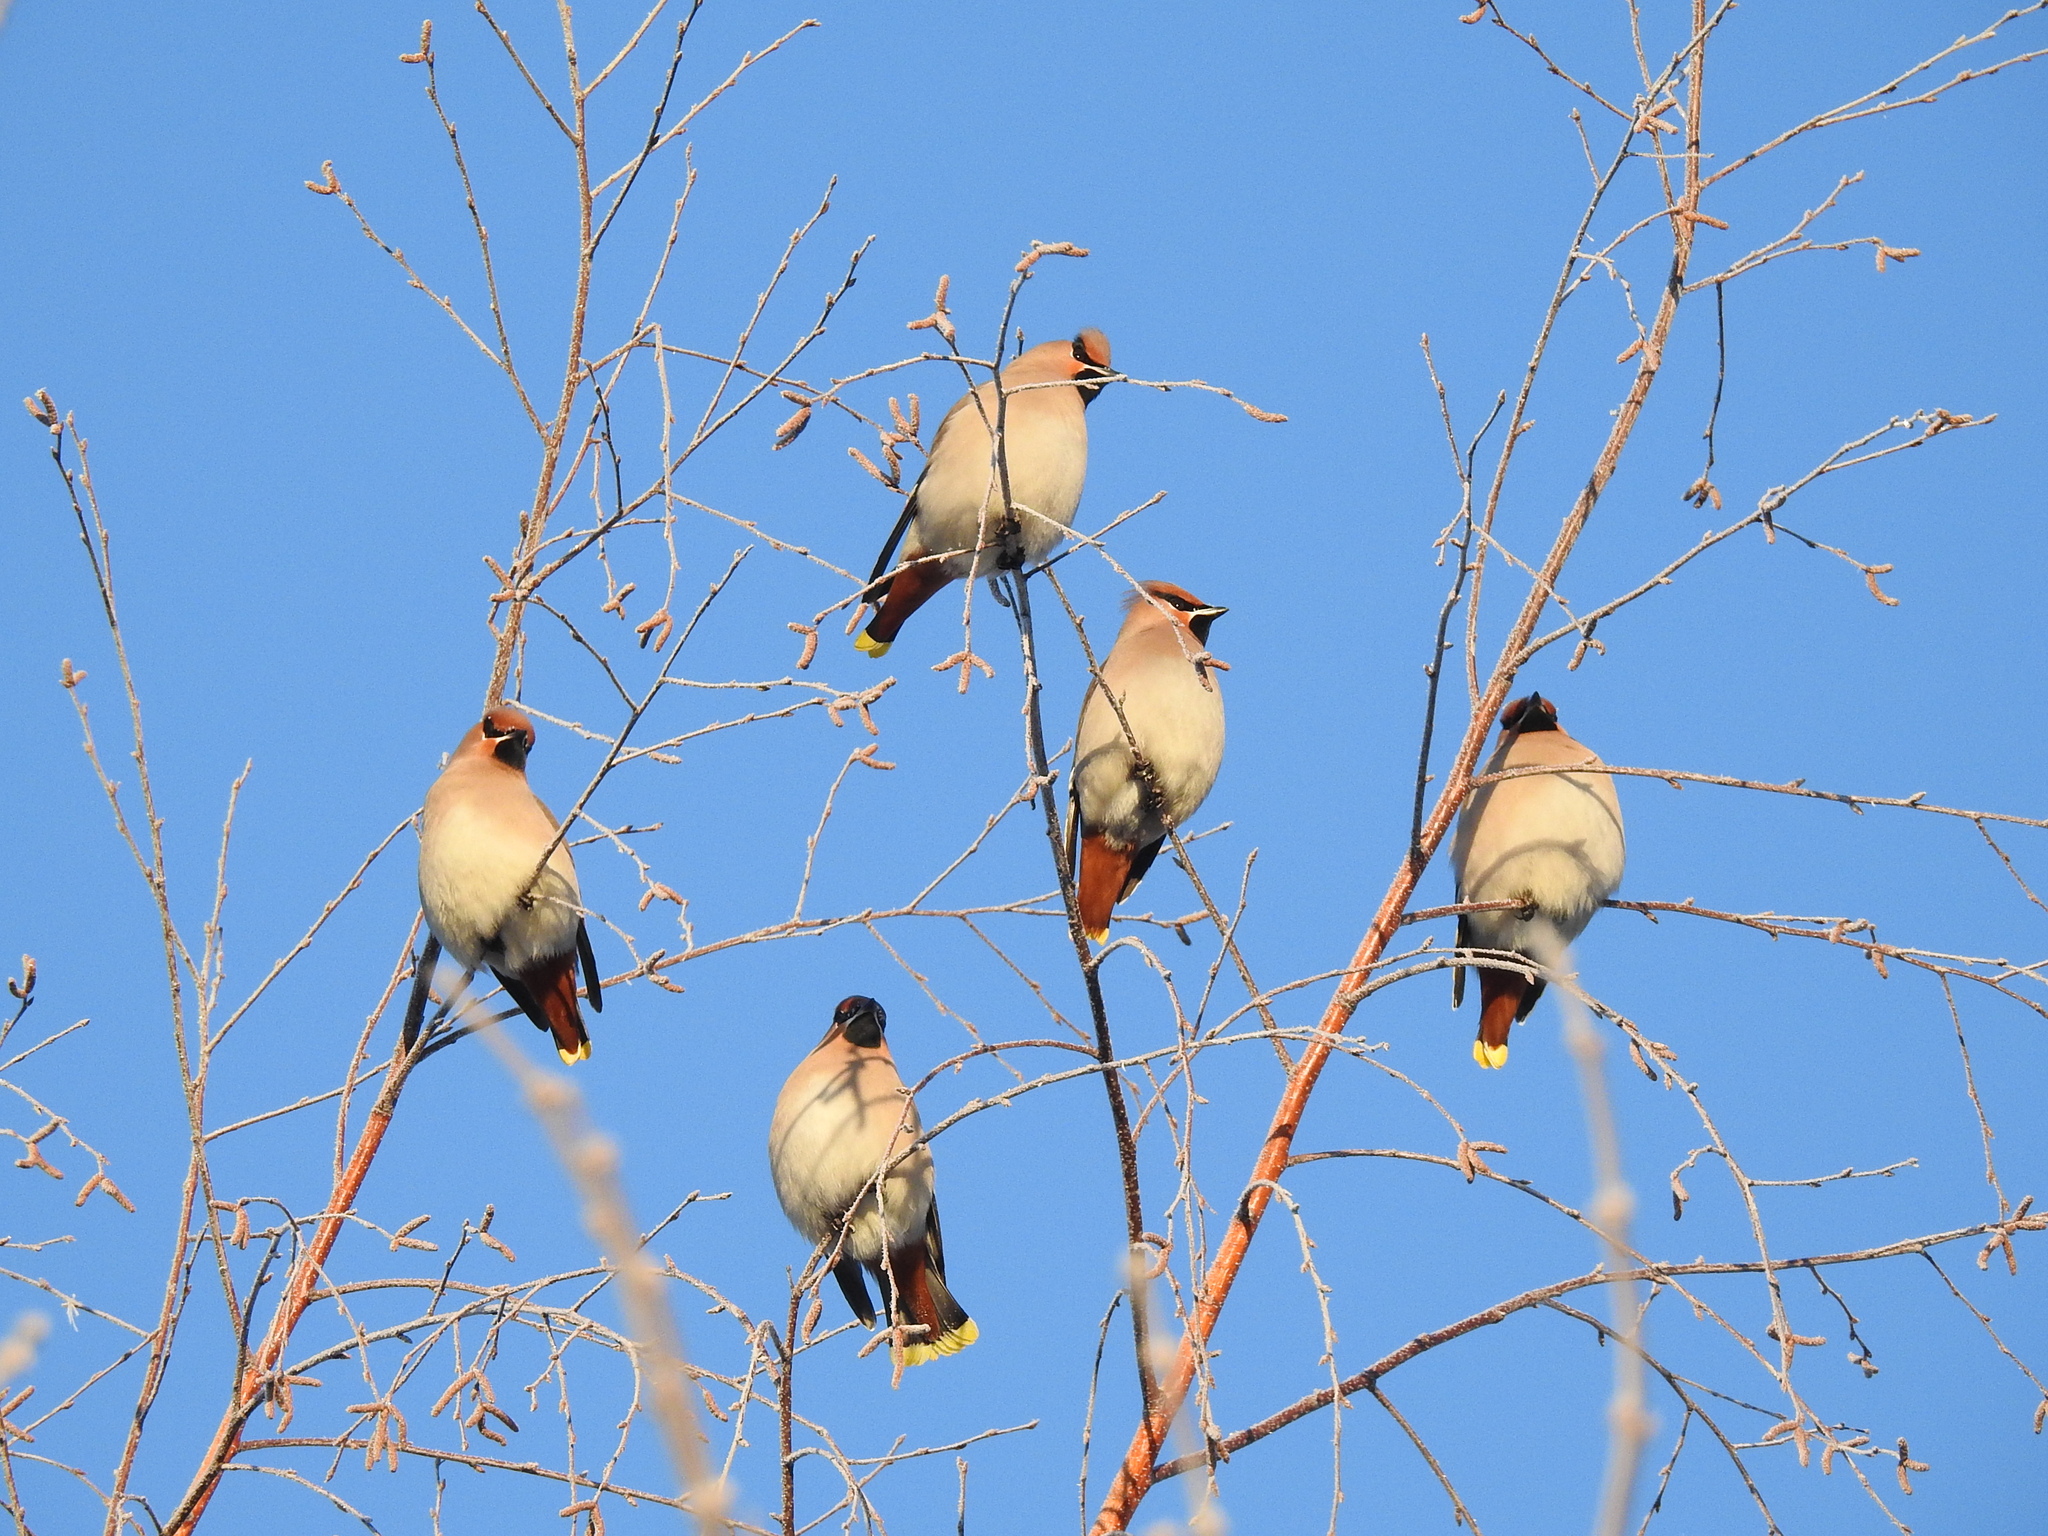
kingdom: Animalia
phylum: Chordata
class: Aves
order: Passeriformes
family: Bombycillidae
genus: Bombycilla
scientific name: Bombycilla garrulus
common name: Bohemian waxwing
